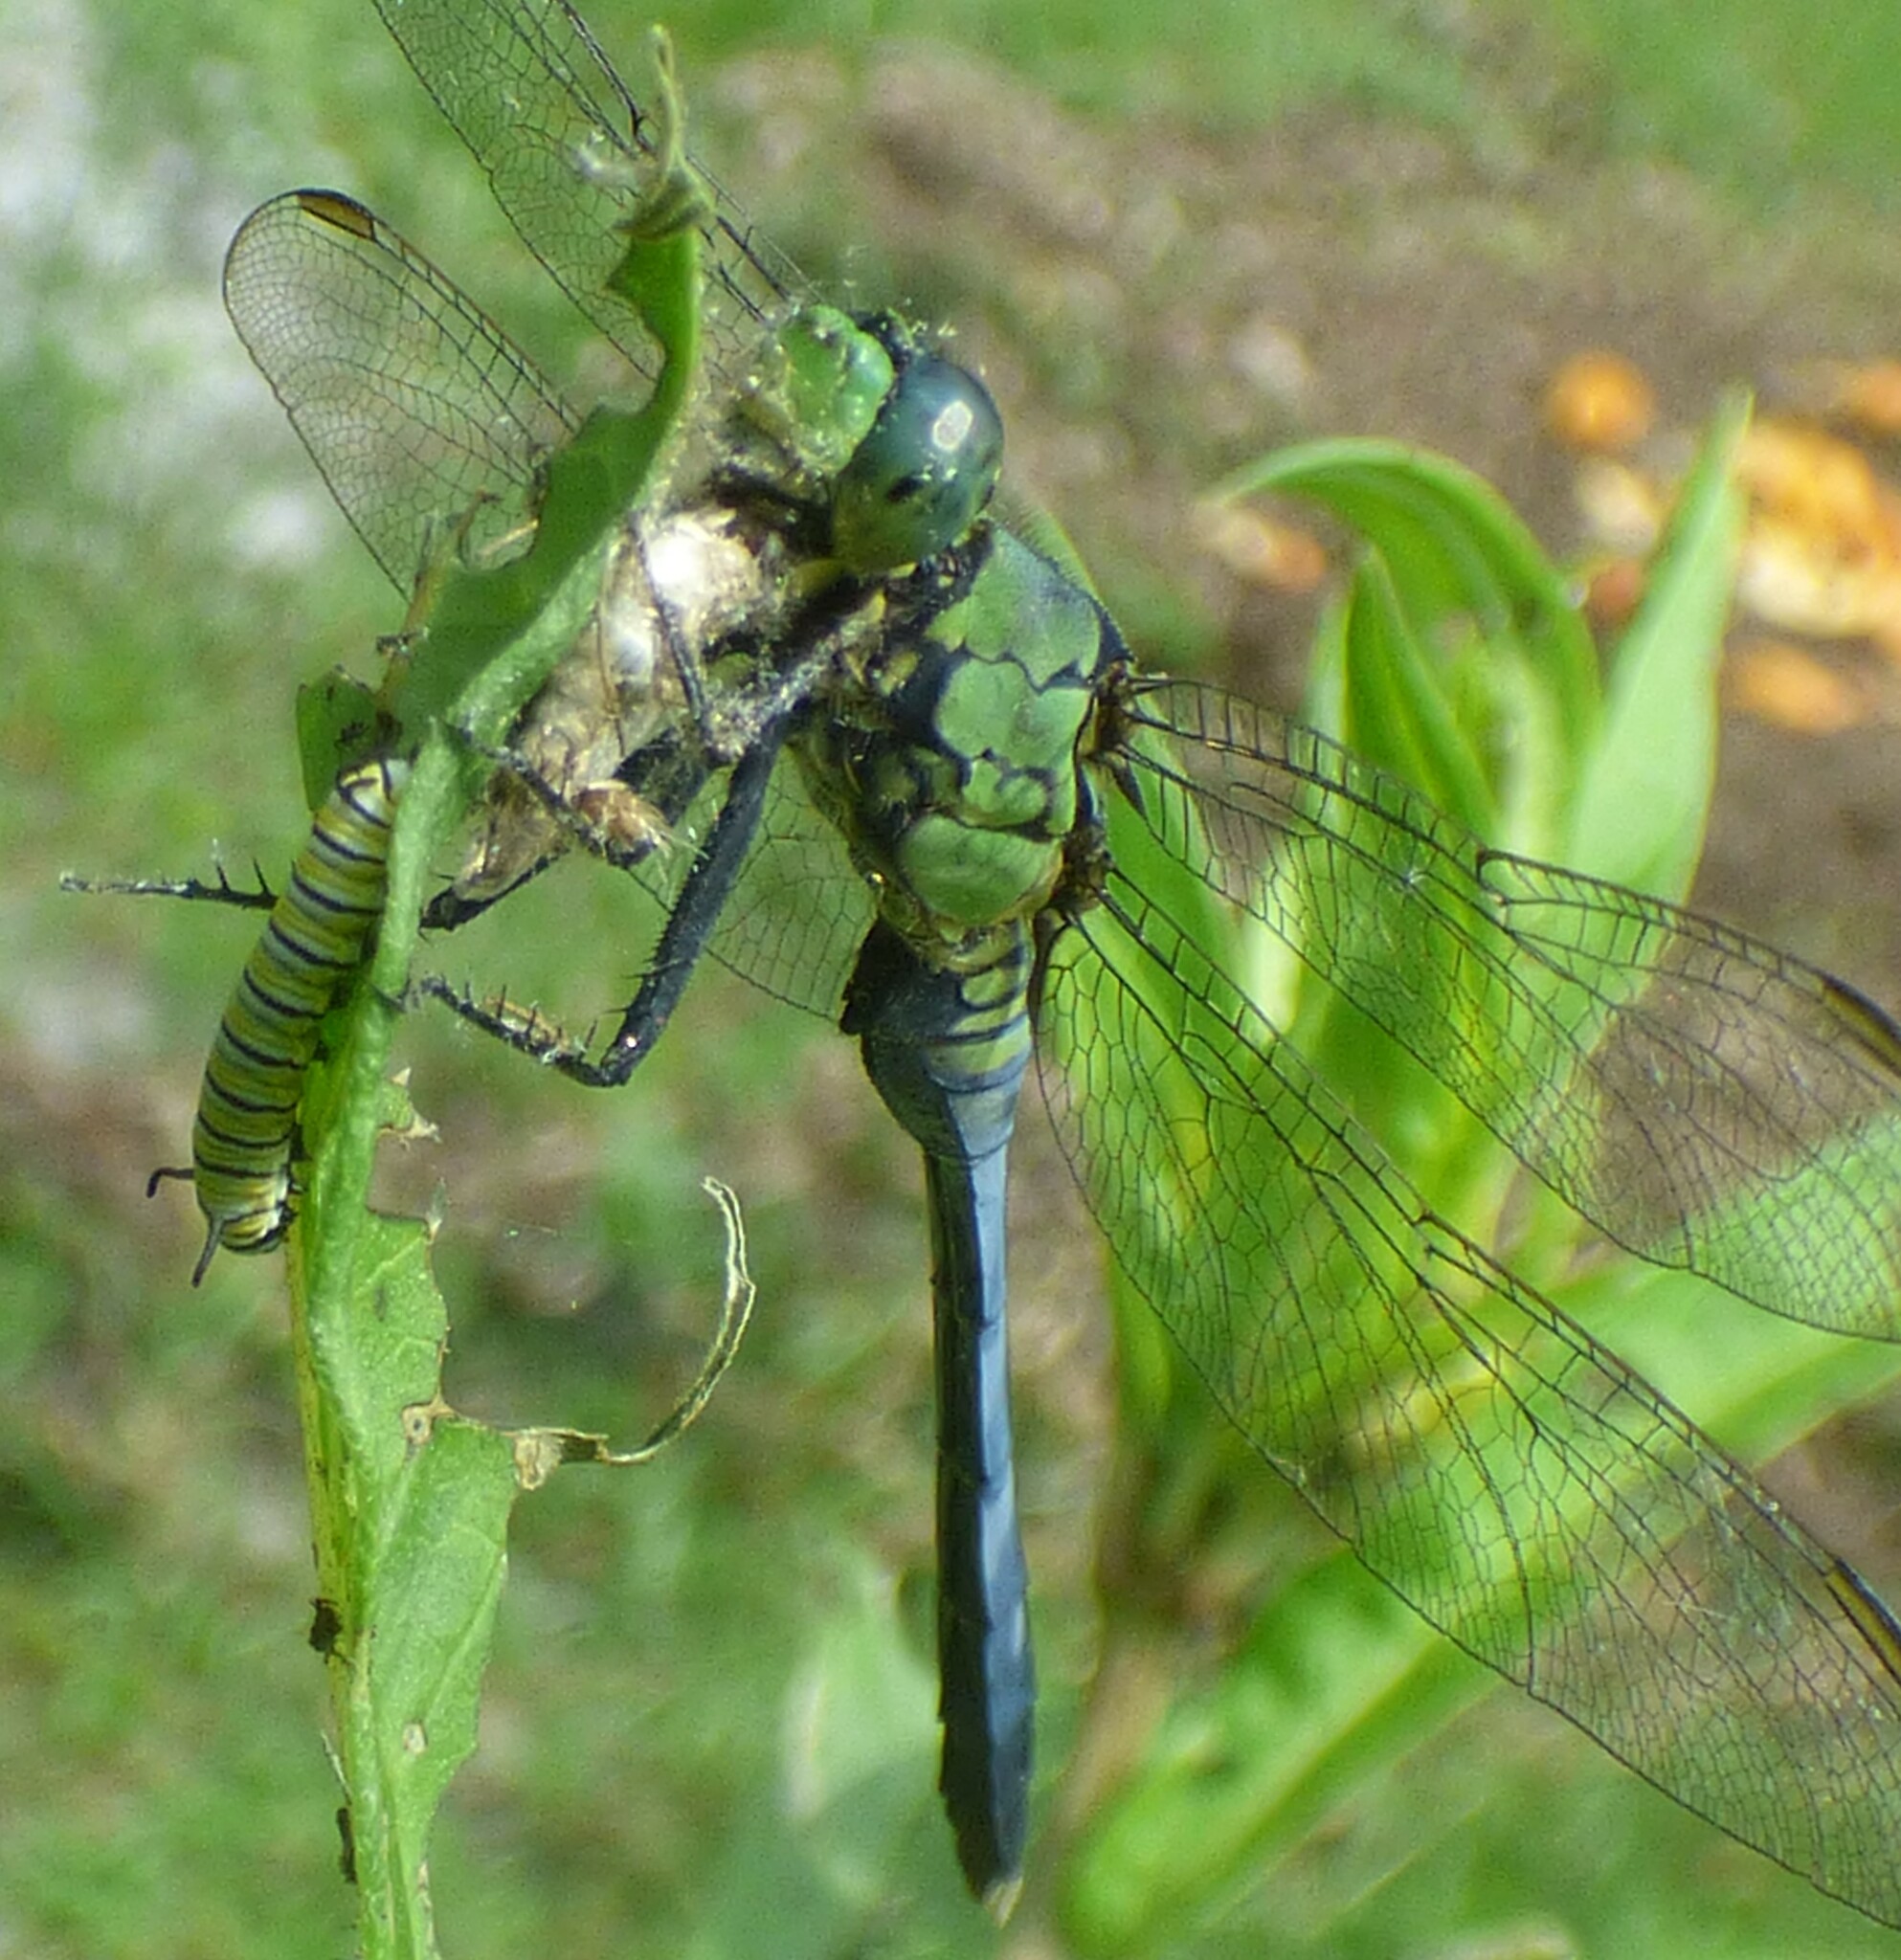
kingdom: Animalia
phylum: Arthropoda
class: Insecta
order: Lepidoptera
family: Nymphalidae
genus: Danaus
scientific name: Danaus plexippus
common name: Monarch
